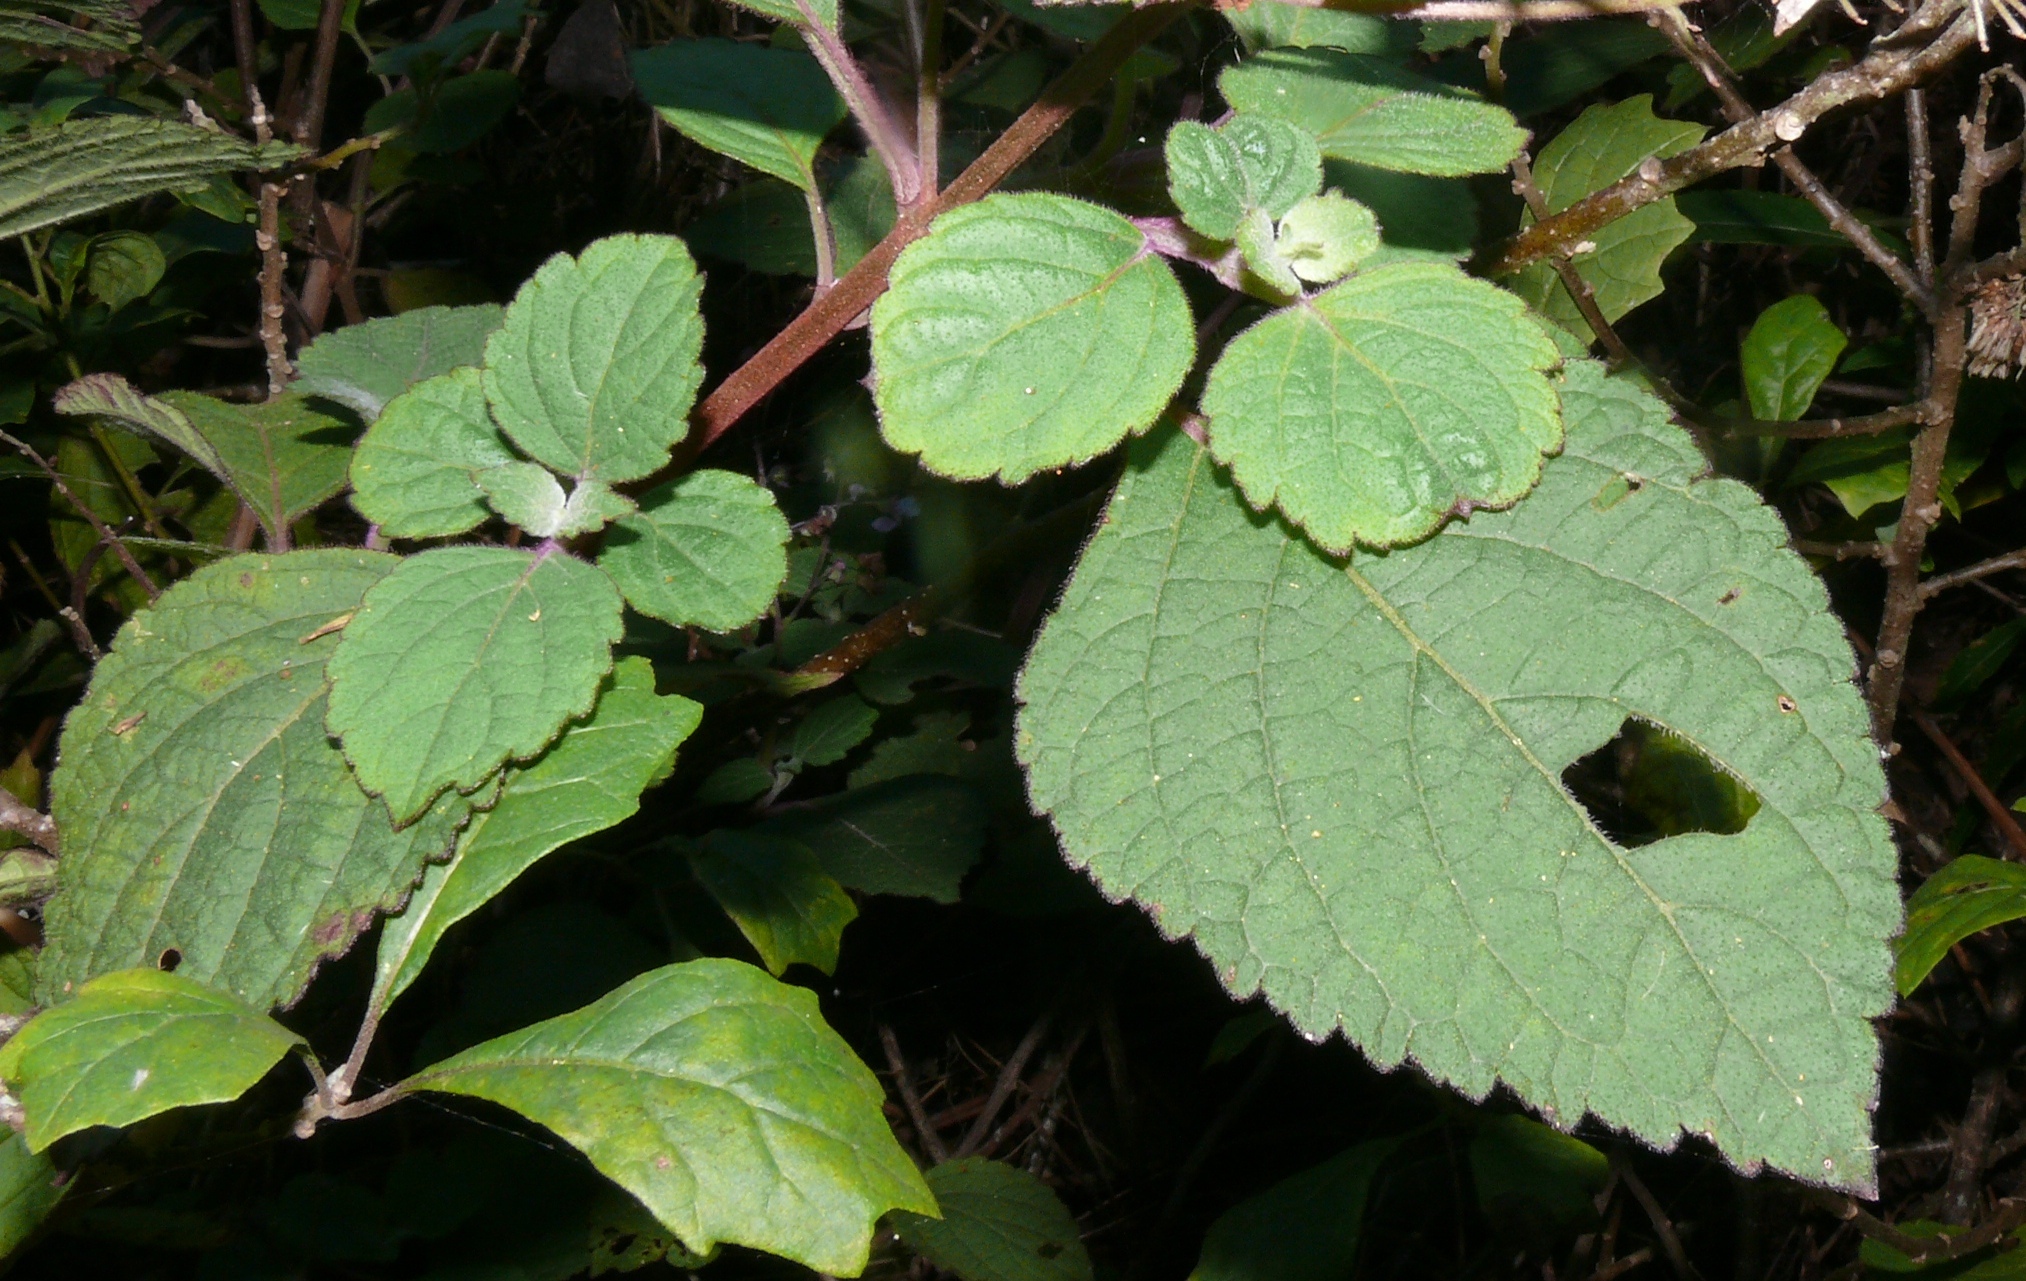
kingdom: Plantae
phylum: Tracheophyta
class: Magnoliopsida
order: Lamiales
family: Lamiaceae
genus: Plectranthus
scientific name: Plectranthus fruticosus
